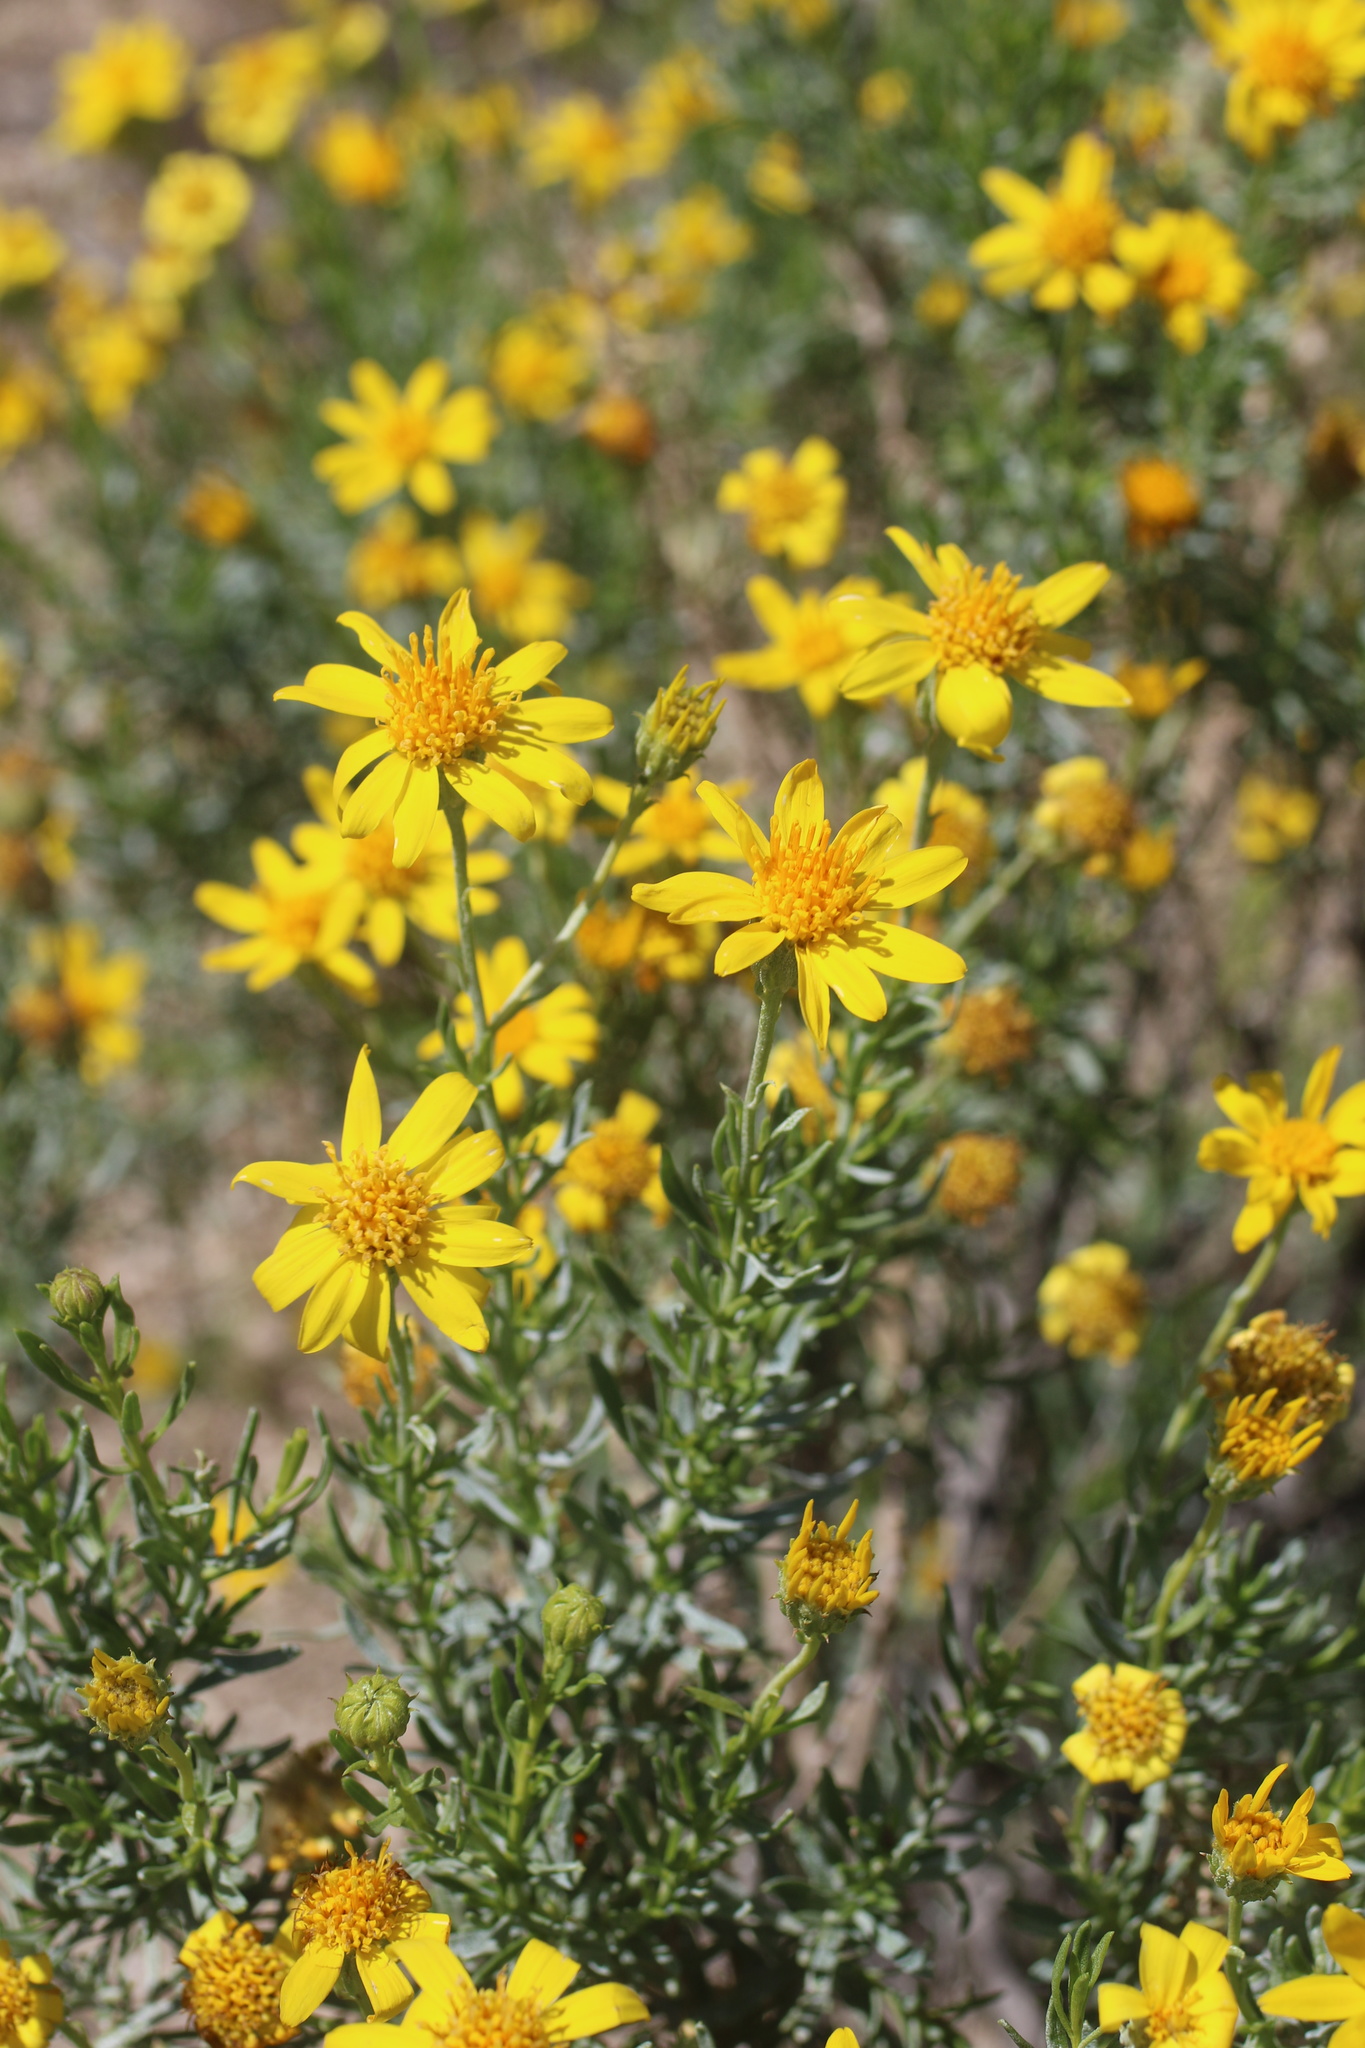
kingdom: Plantae
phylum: Tracheophyta
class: Magnoliopsida
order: Asterales
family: Asteraceae
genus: Ericameria
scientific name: Ericameria linearifolia
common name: Interior goldenbush
